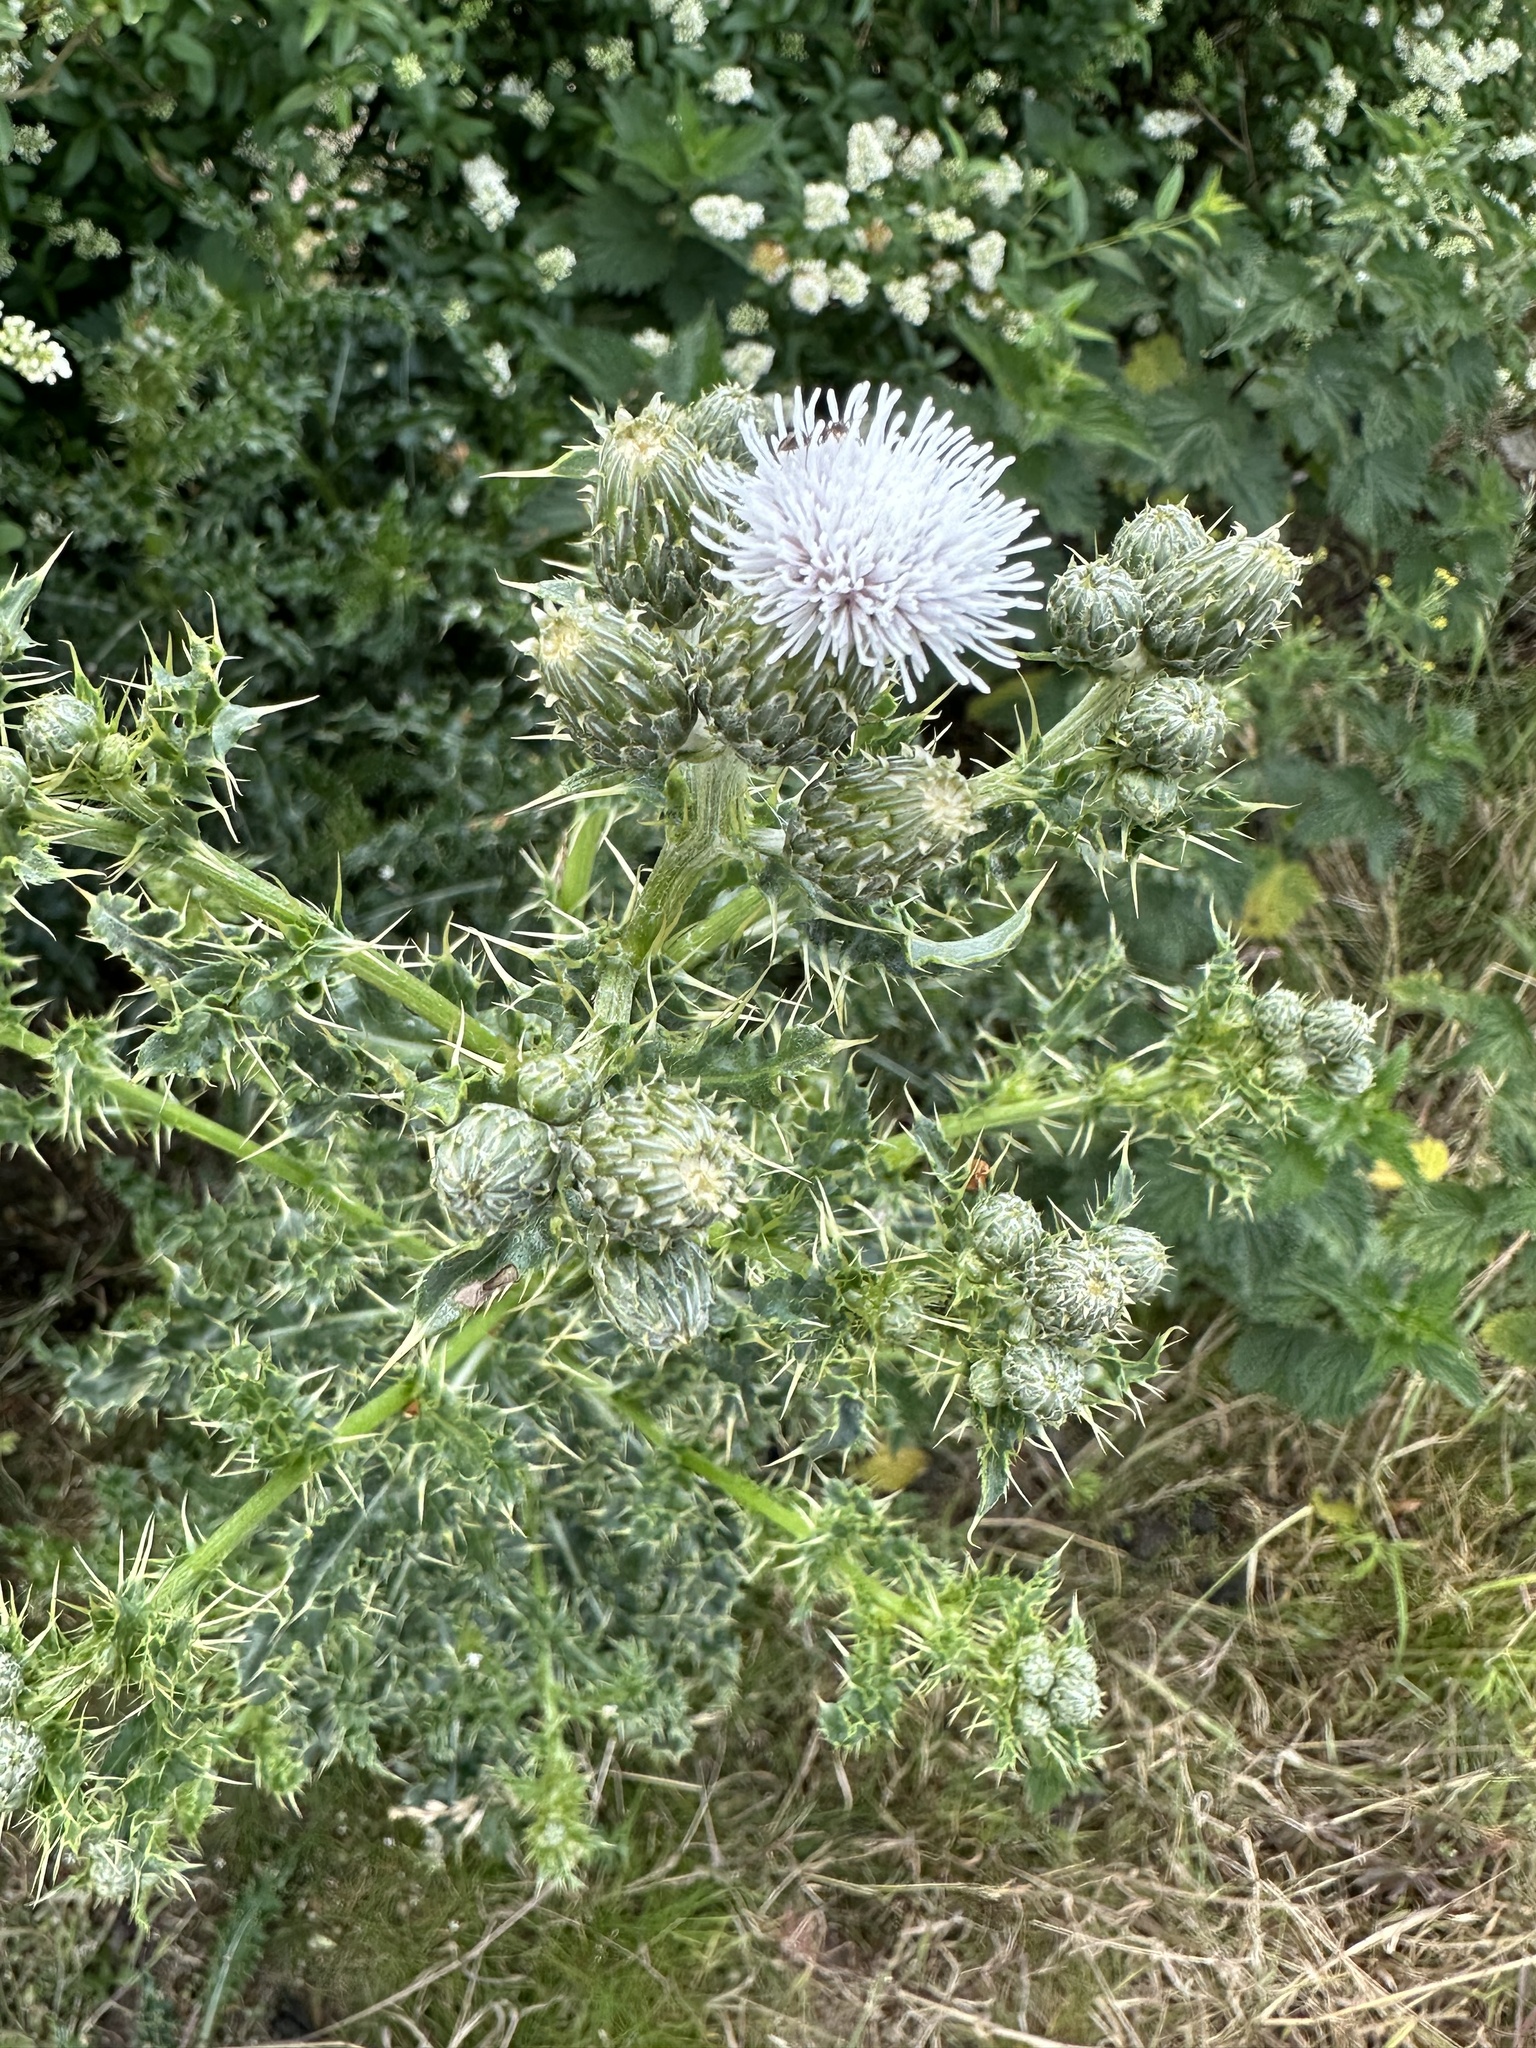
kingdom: Plantae
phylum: Tracheophyta
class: Magnoliopsida
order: Asterales
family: Asteraceae
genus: Cirsium
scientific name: Cirsium arvense
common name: Creeping thistle
